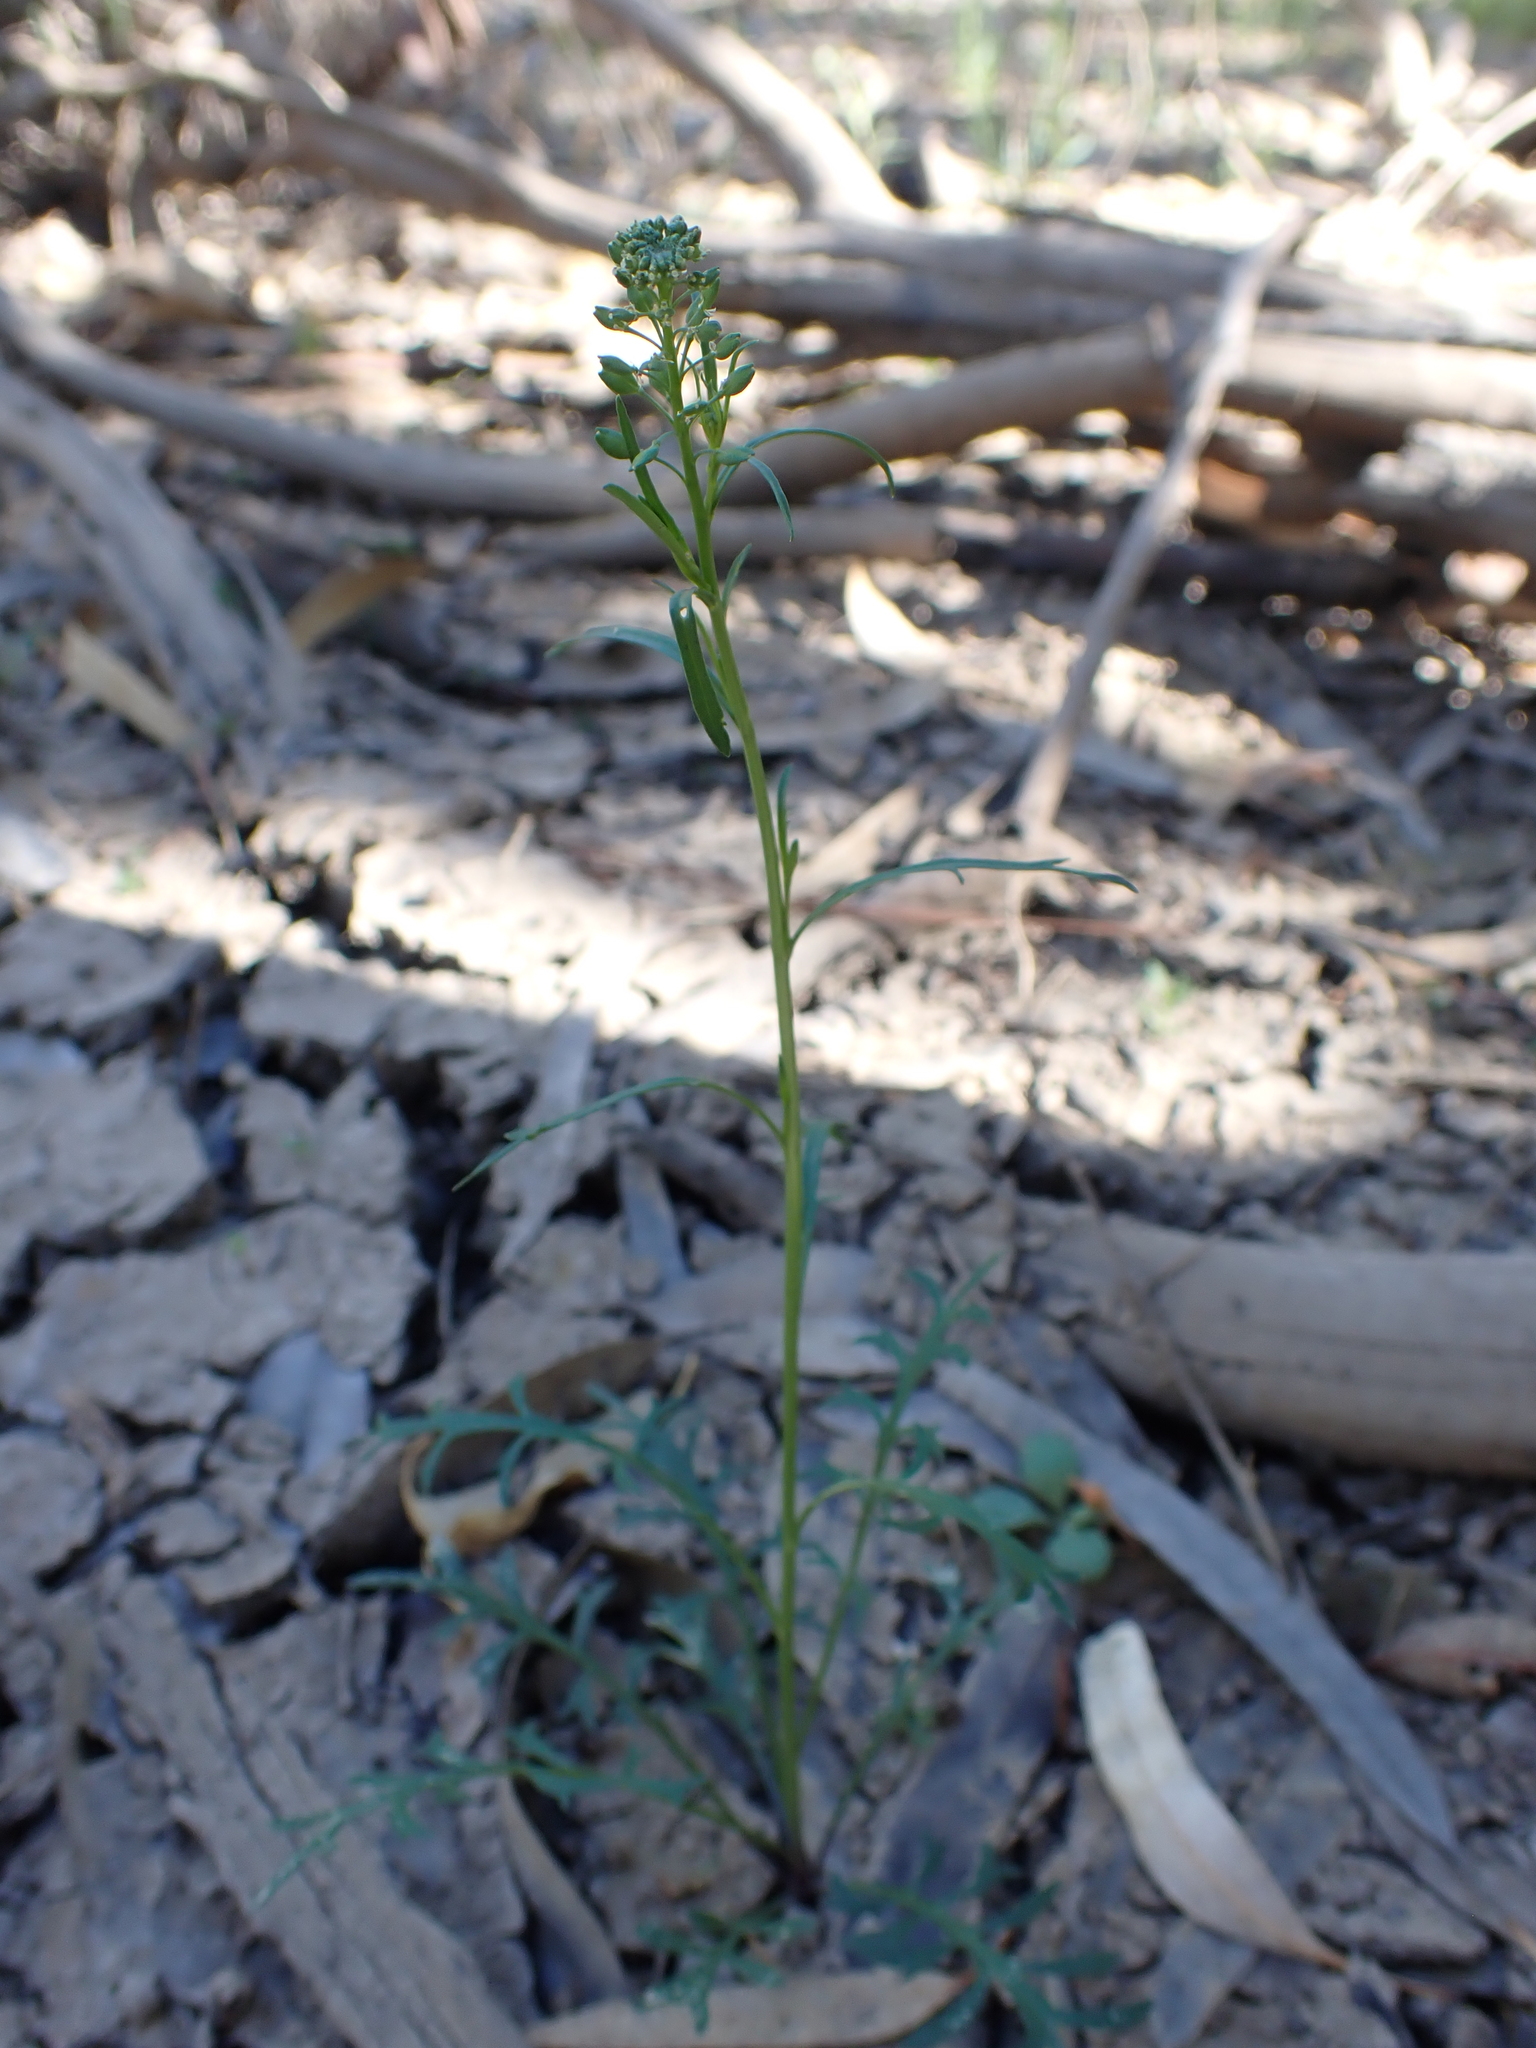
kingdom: Plantae
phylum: Tracheophyta
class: Magnoliopsida
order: Brassicales
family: Brassicaceae
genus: Lepidium
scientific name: Lepidium pseudohyssopifolium
